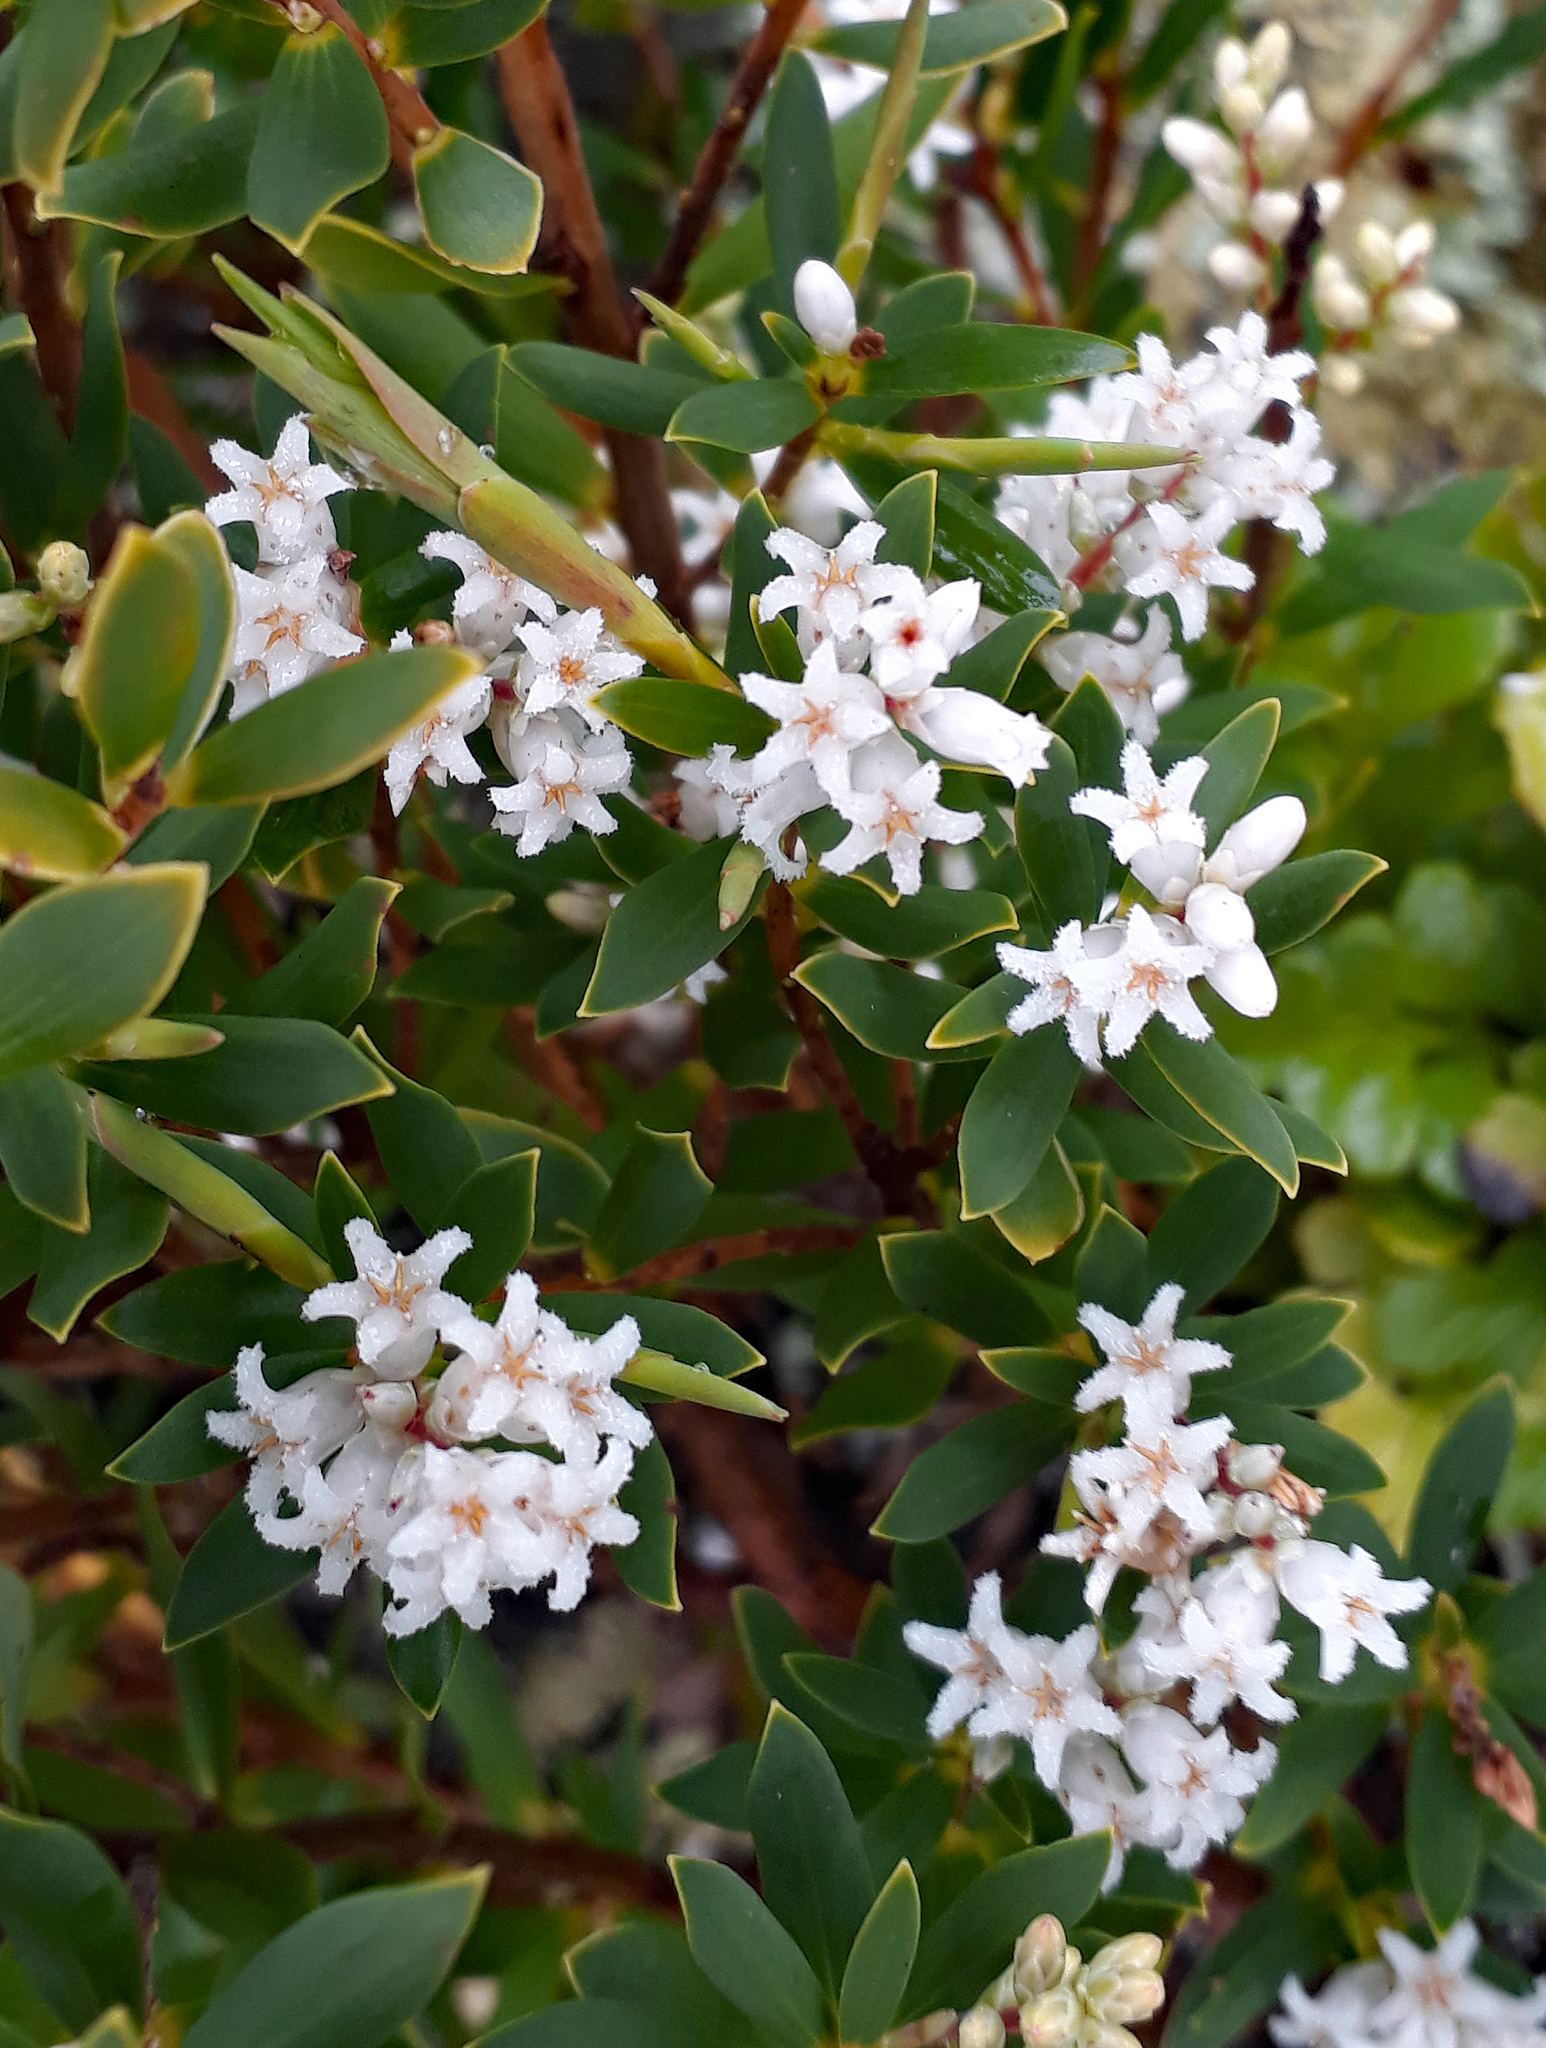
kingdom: Plantae
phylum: Tracheophyta
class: Magnoliopsida
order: Ericales
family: Ericaceae
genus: Leptecophylla
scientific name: Leptecophylla parvifolia
